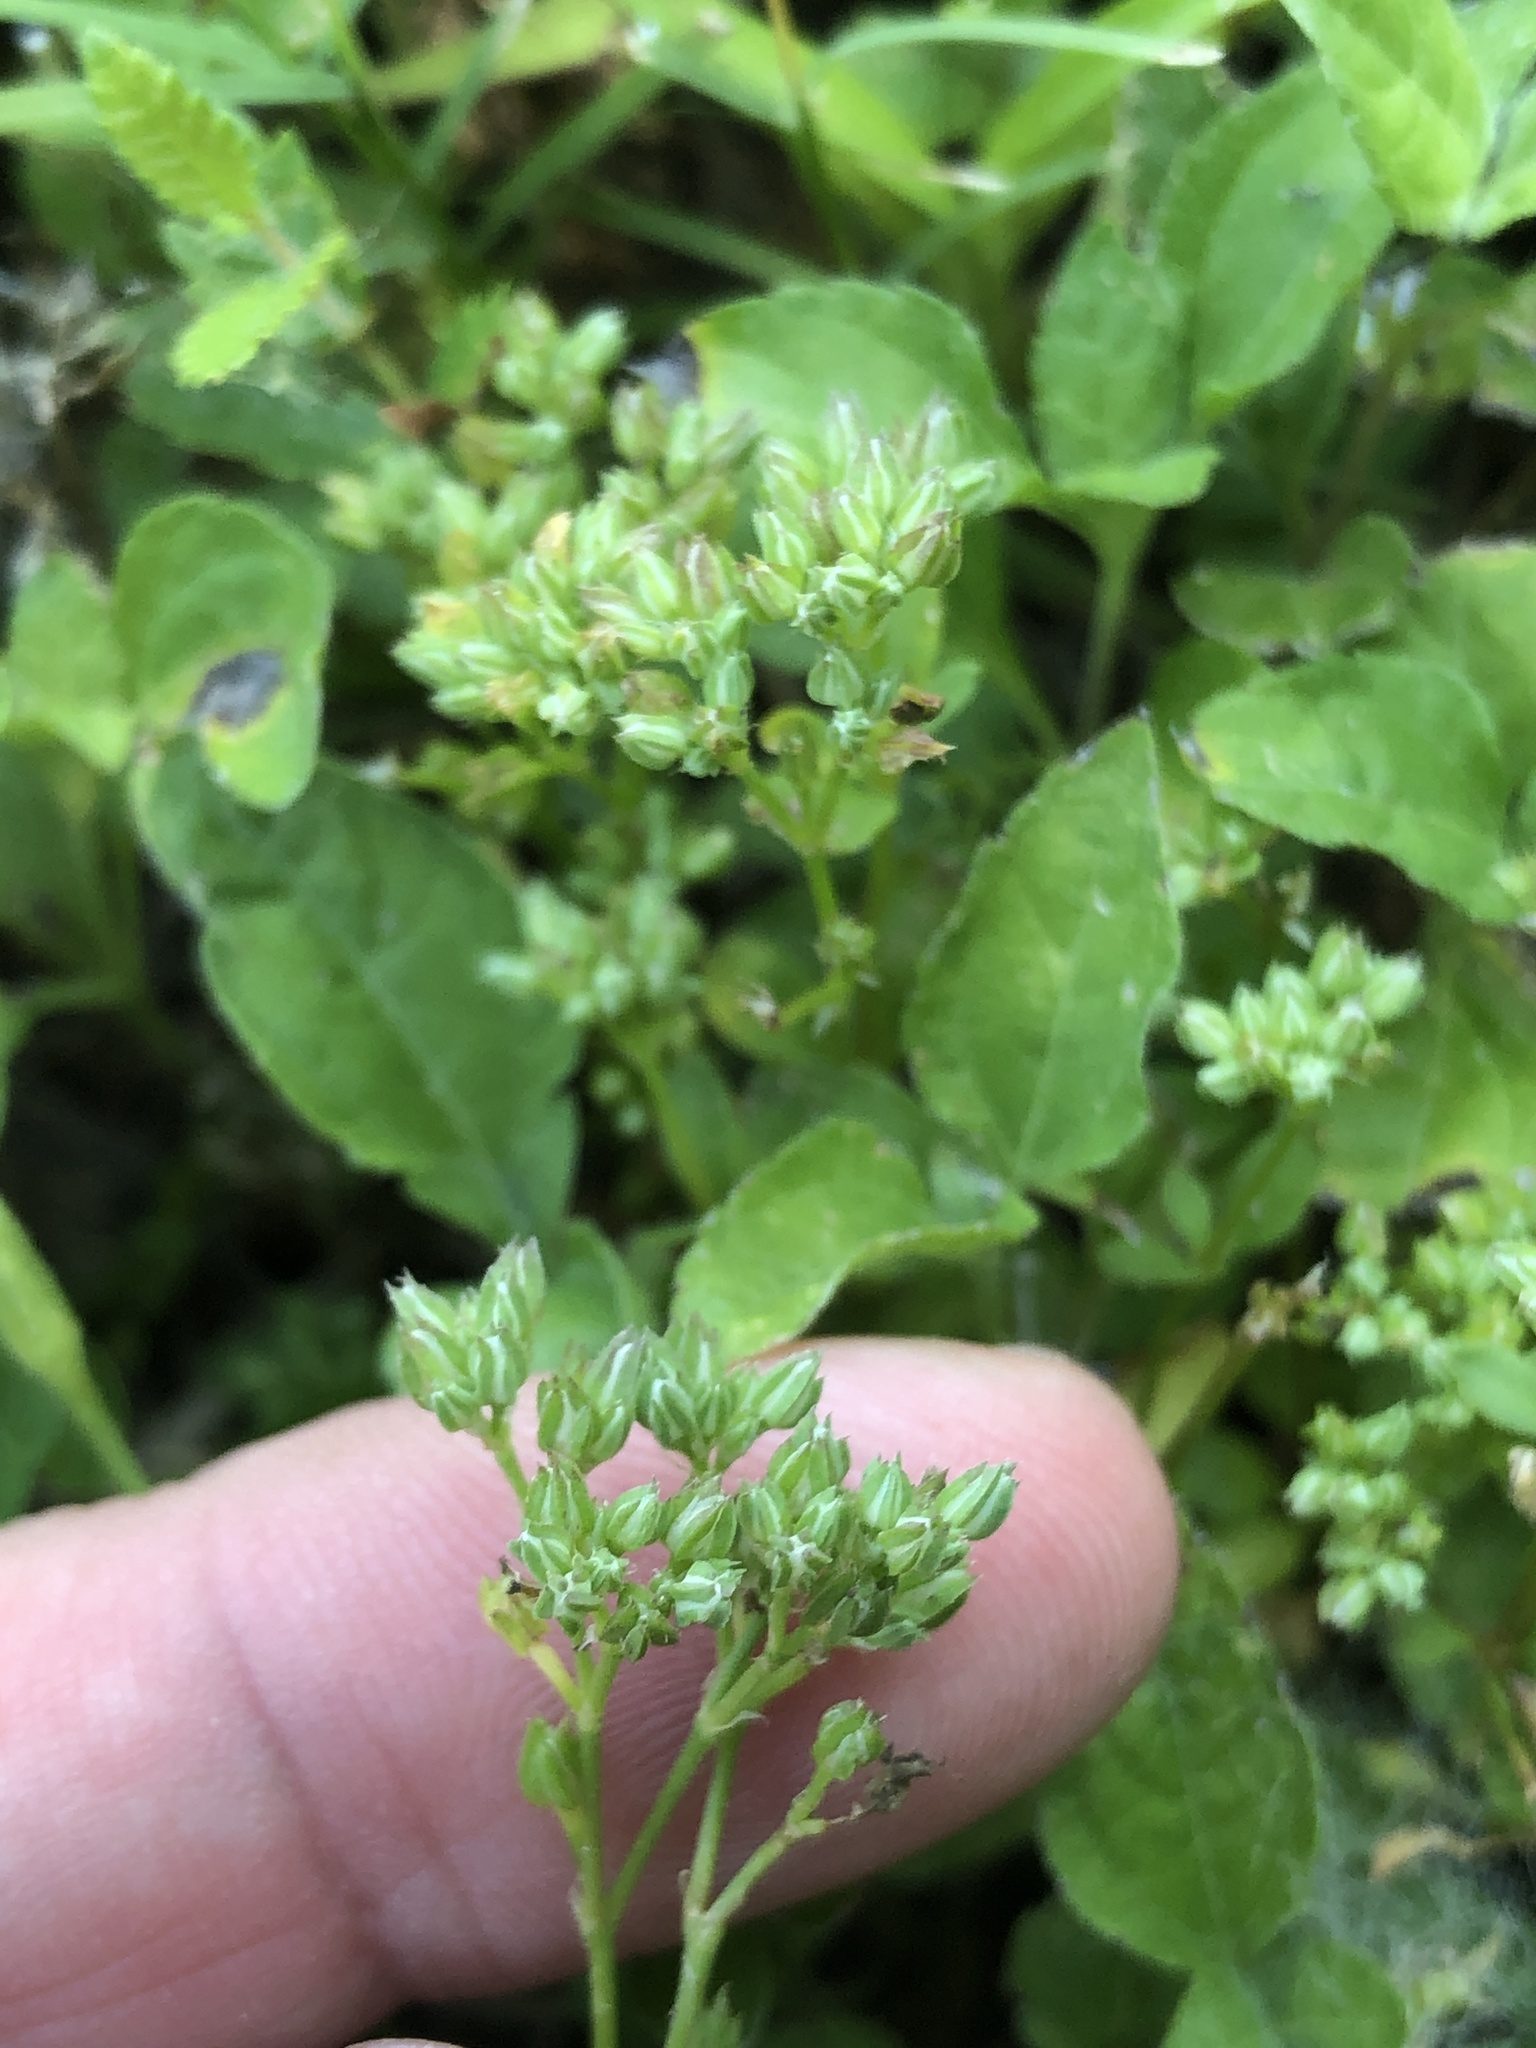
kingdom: Plantae
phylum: Tracheophyta
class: Magnoliopsida
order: Caryophyllales
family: Caryophyllaceae
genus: Polycarpon
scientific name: Polycarpon tetraphyllum
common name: Four-leaved all-seed
